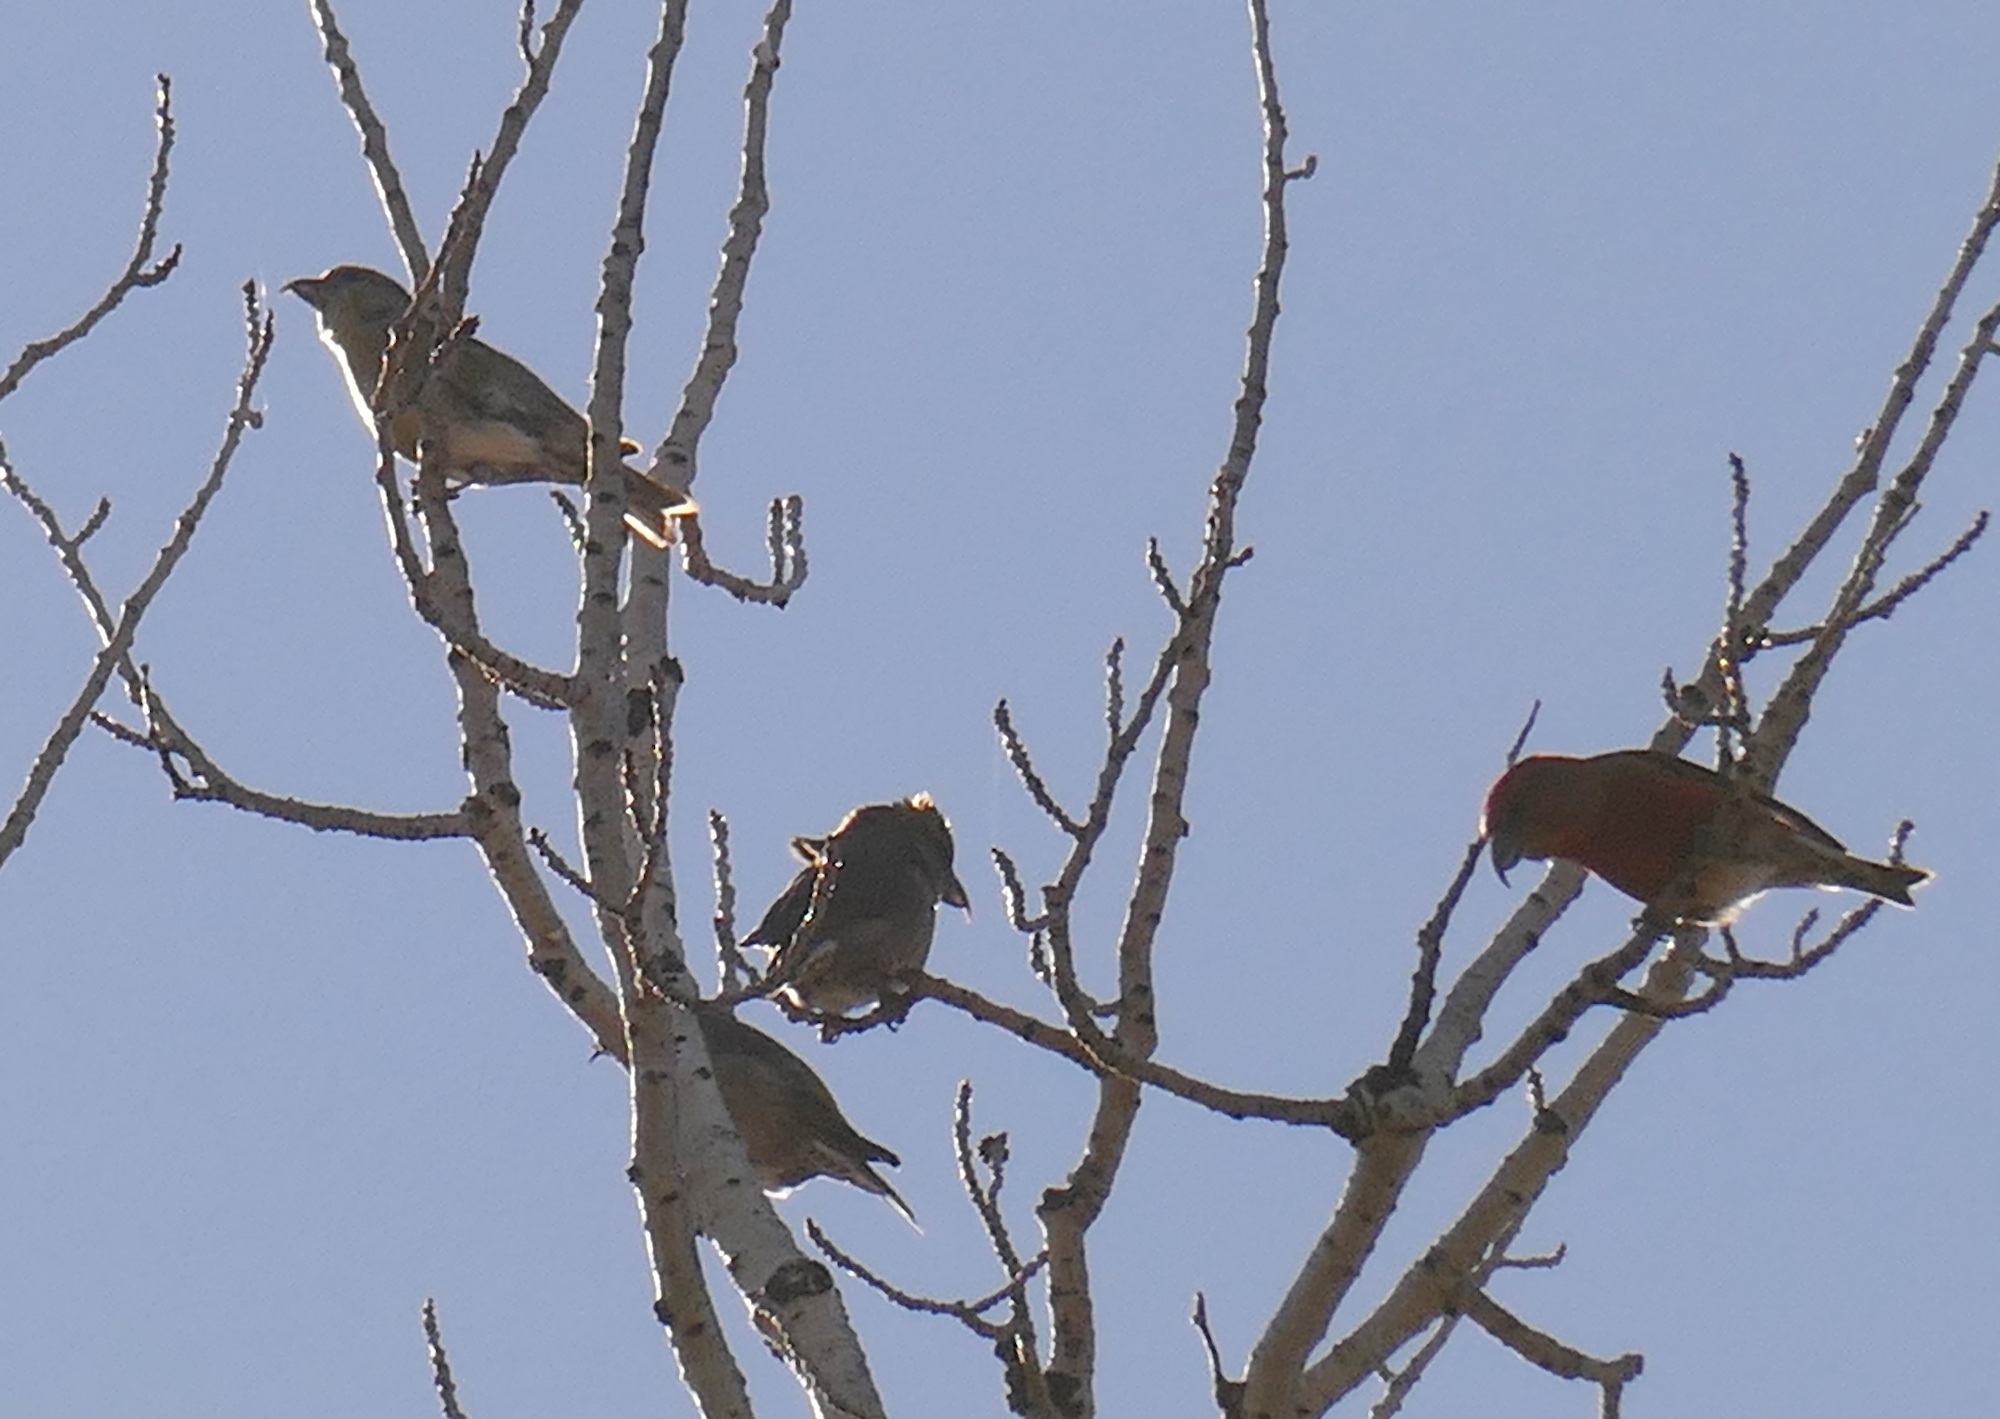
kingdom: Animalia
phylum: Chordata
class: Aves
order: Passeriformes
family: Fringillidae
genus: Loxia
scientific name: Loxia curvirostra
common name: Red crossbill
